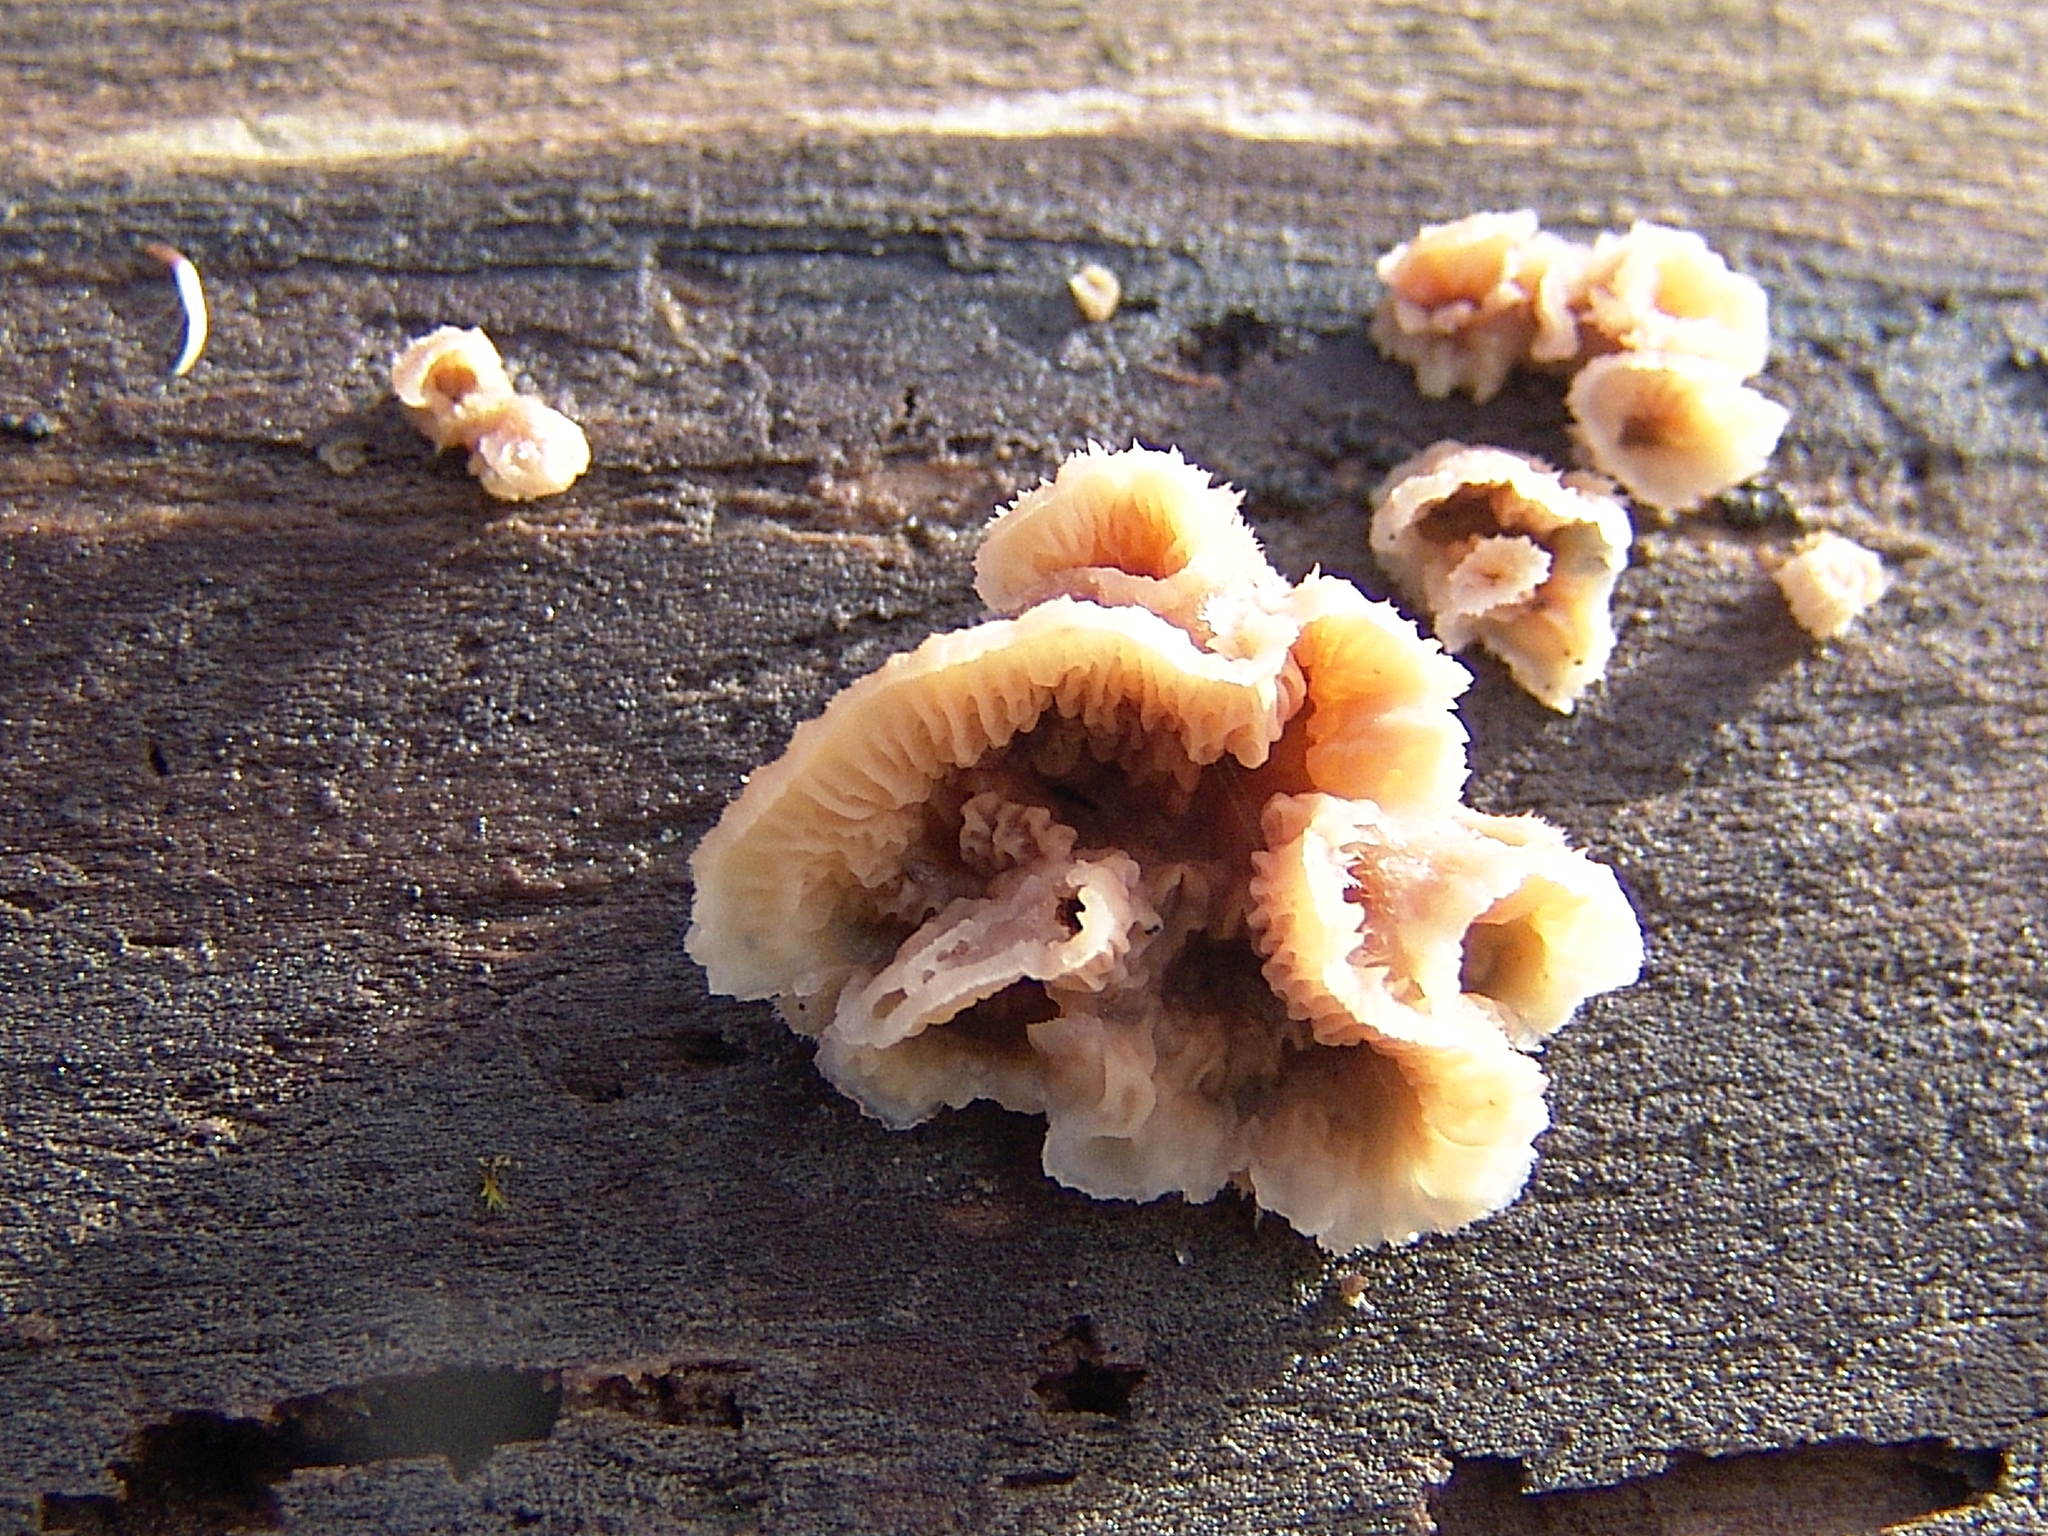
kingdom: Fungi
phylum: Basidiomycota
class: Agaricomycetes
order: Polyporales
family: Meruliaceae
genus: Phlebia
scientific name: Phlebia tremellosa
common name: Jelly rot
